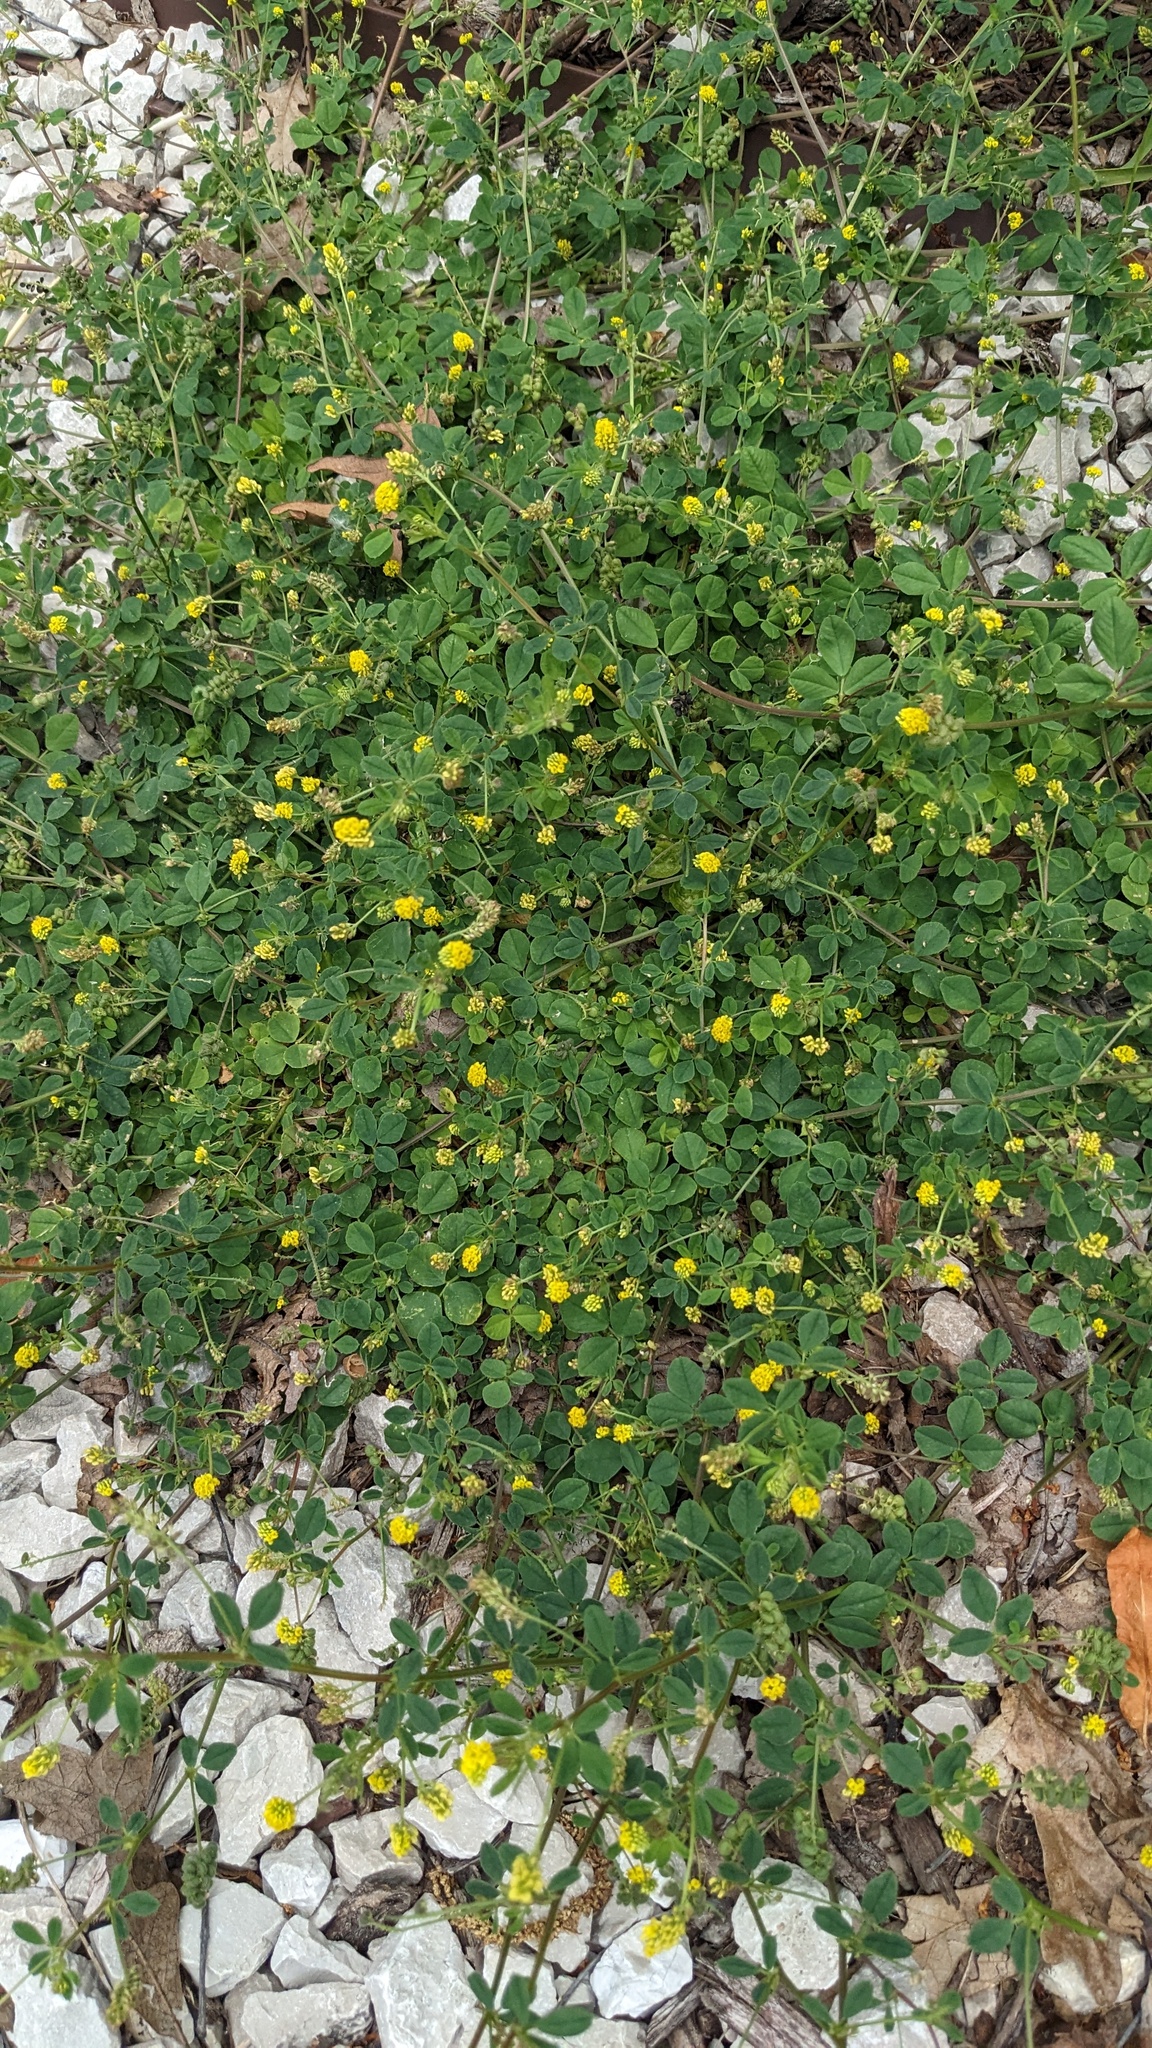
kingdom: Plantae
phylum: Tracheophyta
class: Magnoliopsida
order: Fabales
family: Fabaceae
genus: Medicago
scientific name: Medicago lupulina
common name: Black medick
